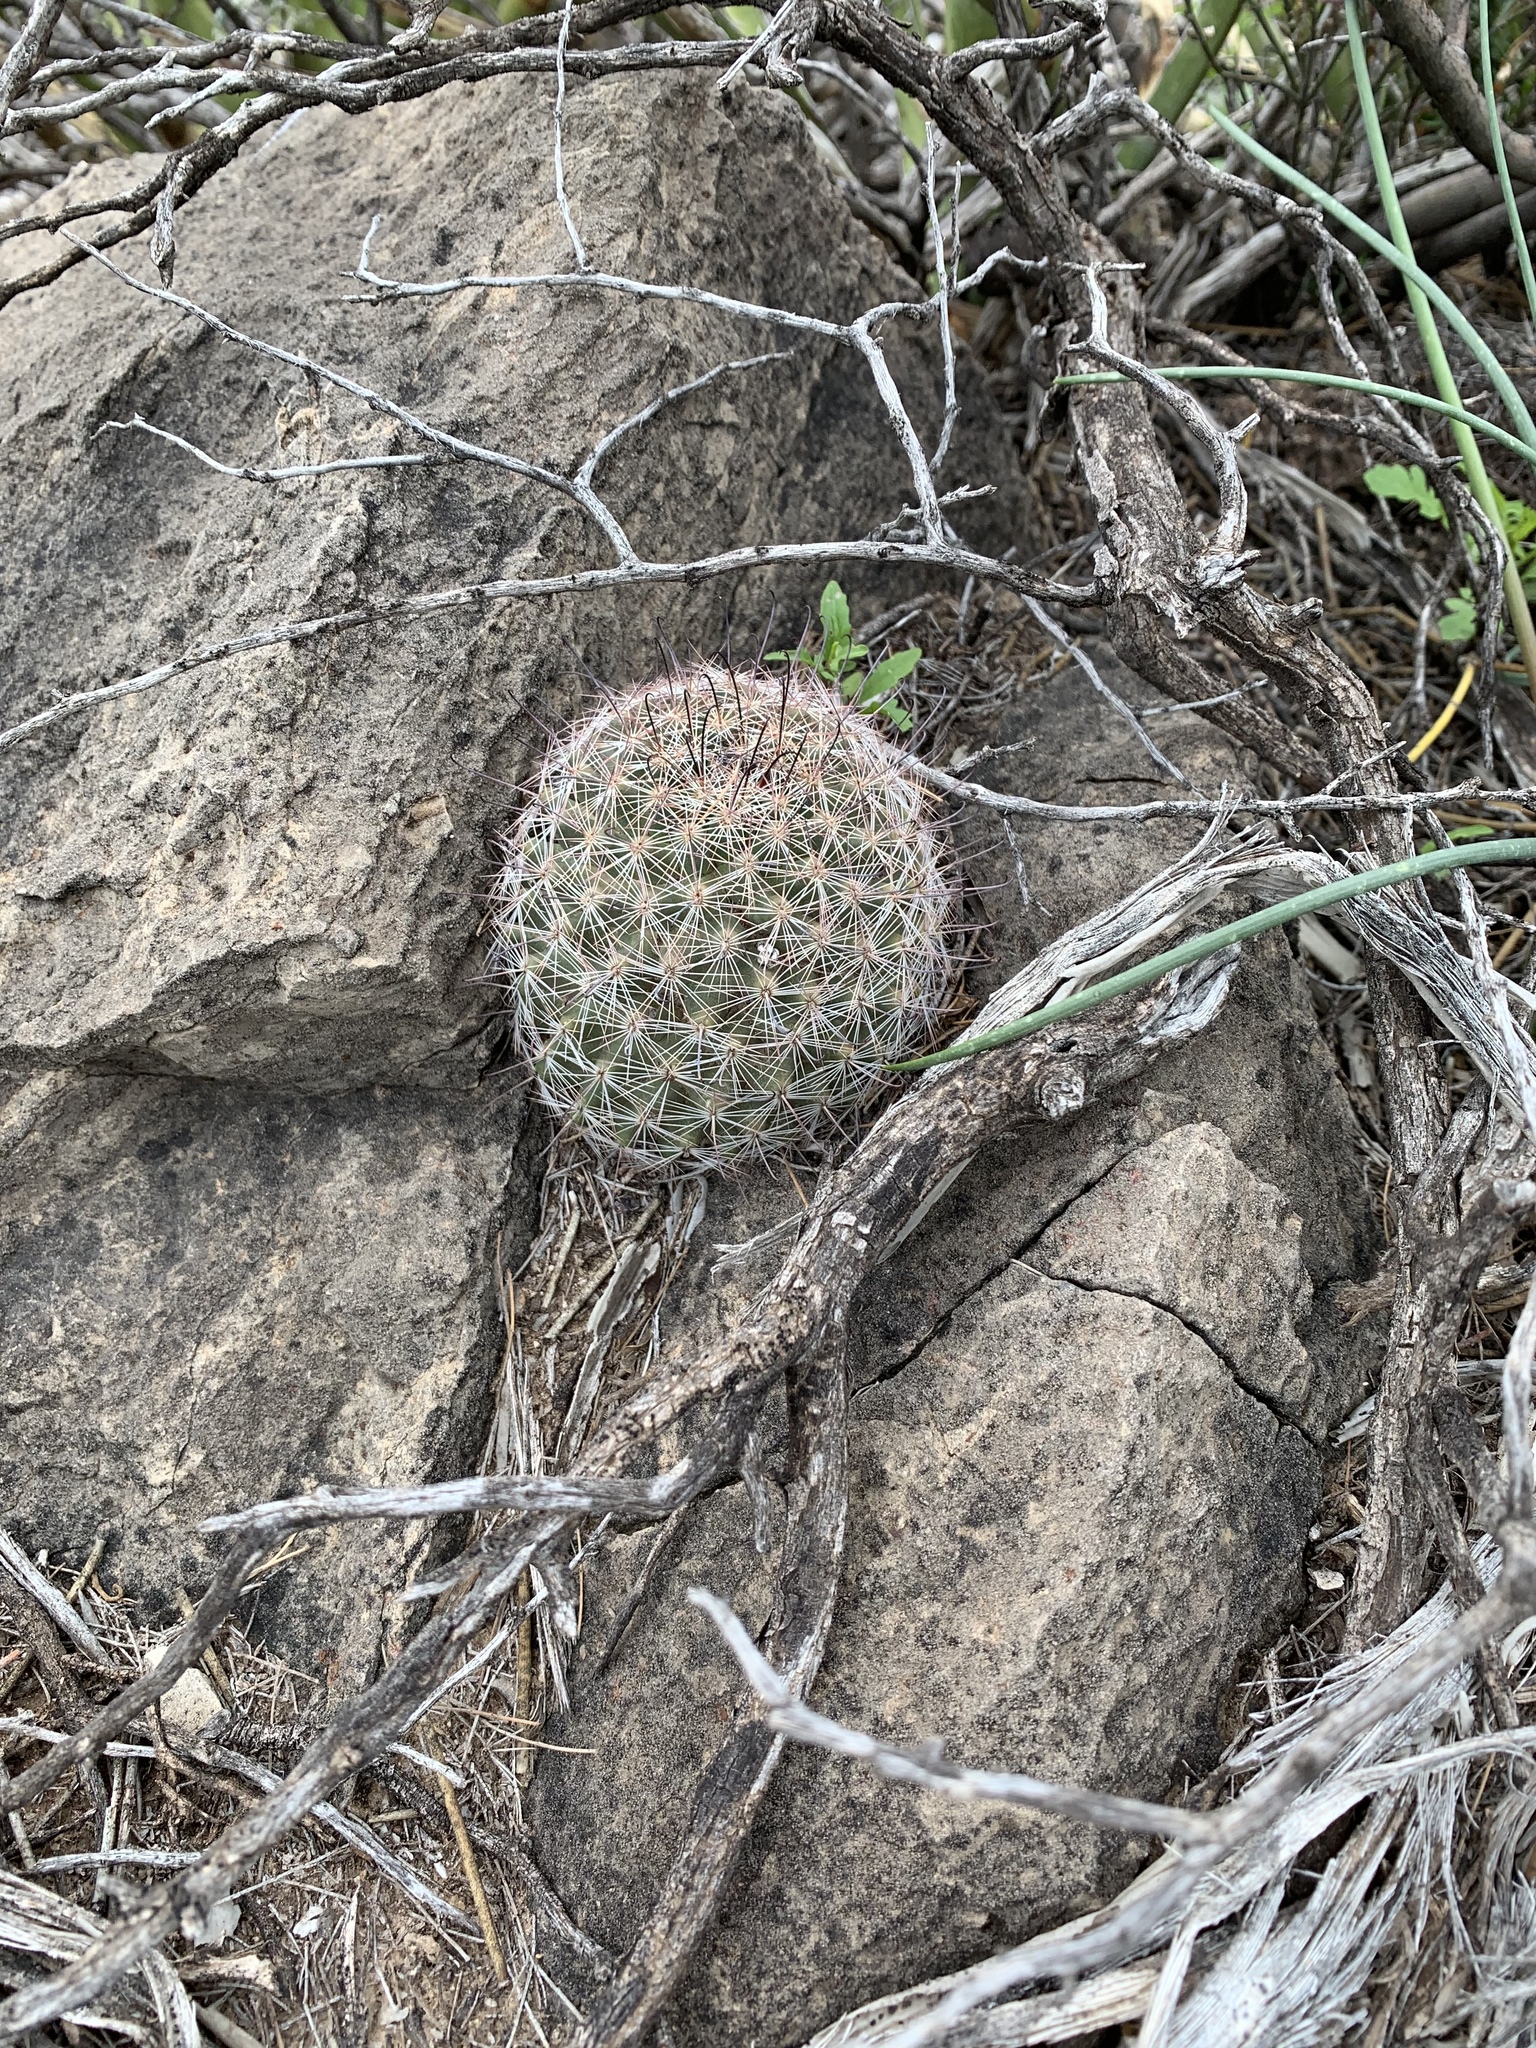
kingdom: Plantae
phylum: Tracheophyta
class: Magnoliopsida
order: Caryophyllales
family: Cactaceae
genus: Cochemiea
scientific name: Cochemiea grahamii
